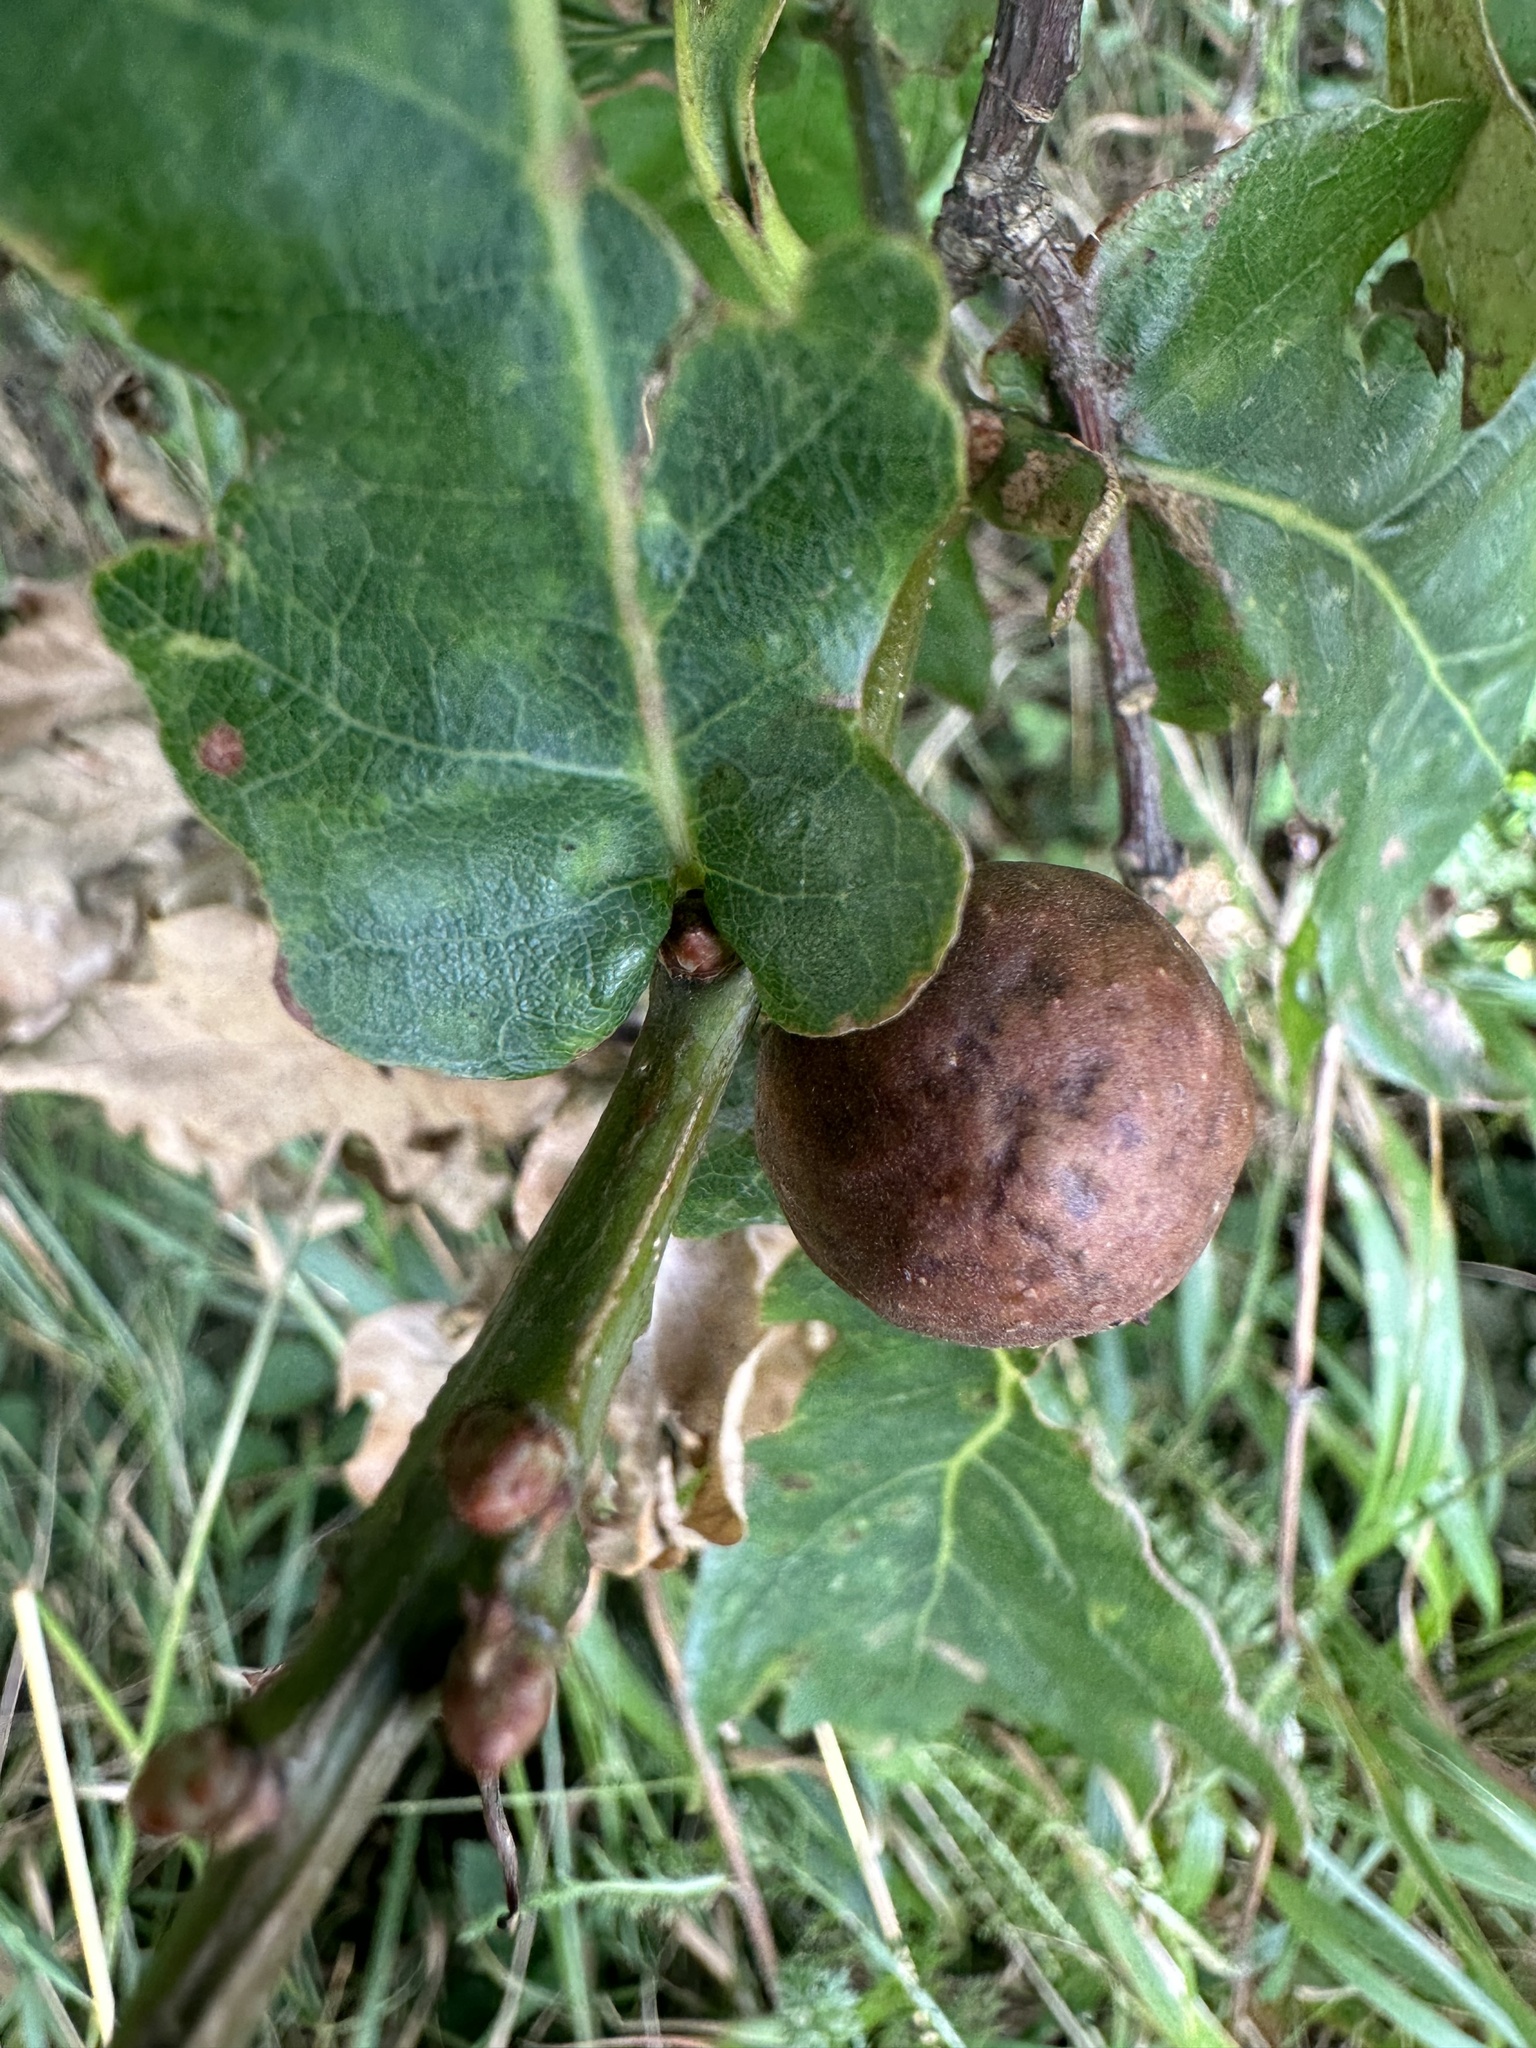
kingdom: Animalia
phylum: Arthropoda
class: Insecta
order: Hymenoptera
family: Cynipidae
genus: Andricus
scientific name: Andricus kollari
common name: Marble gall
